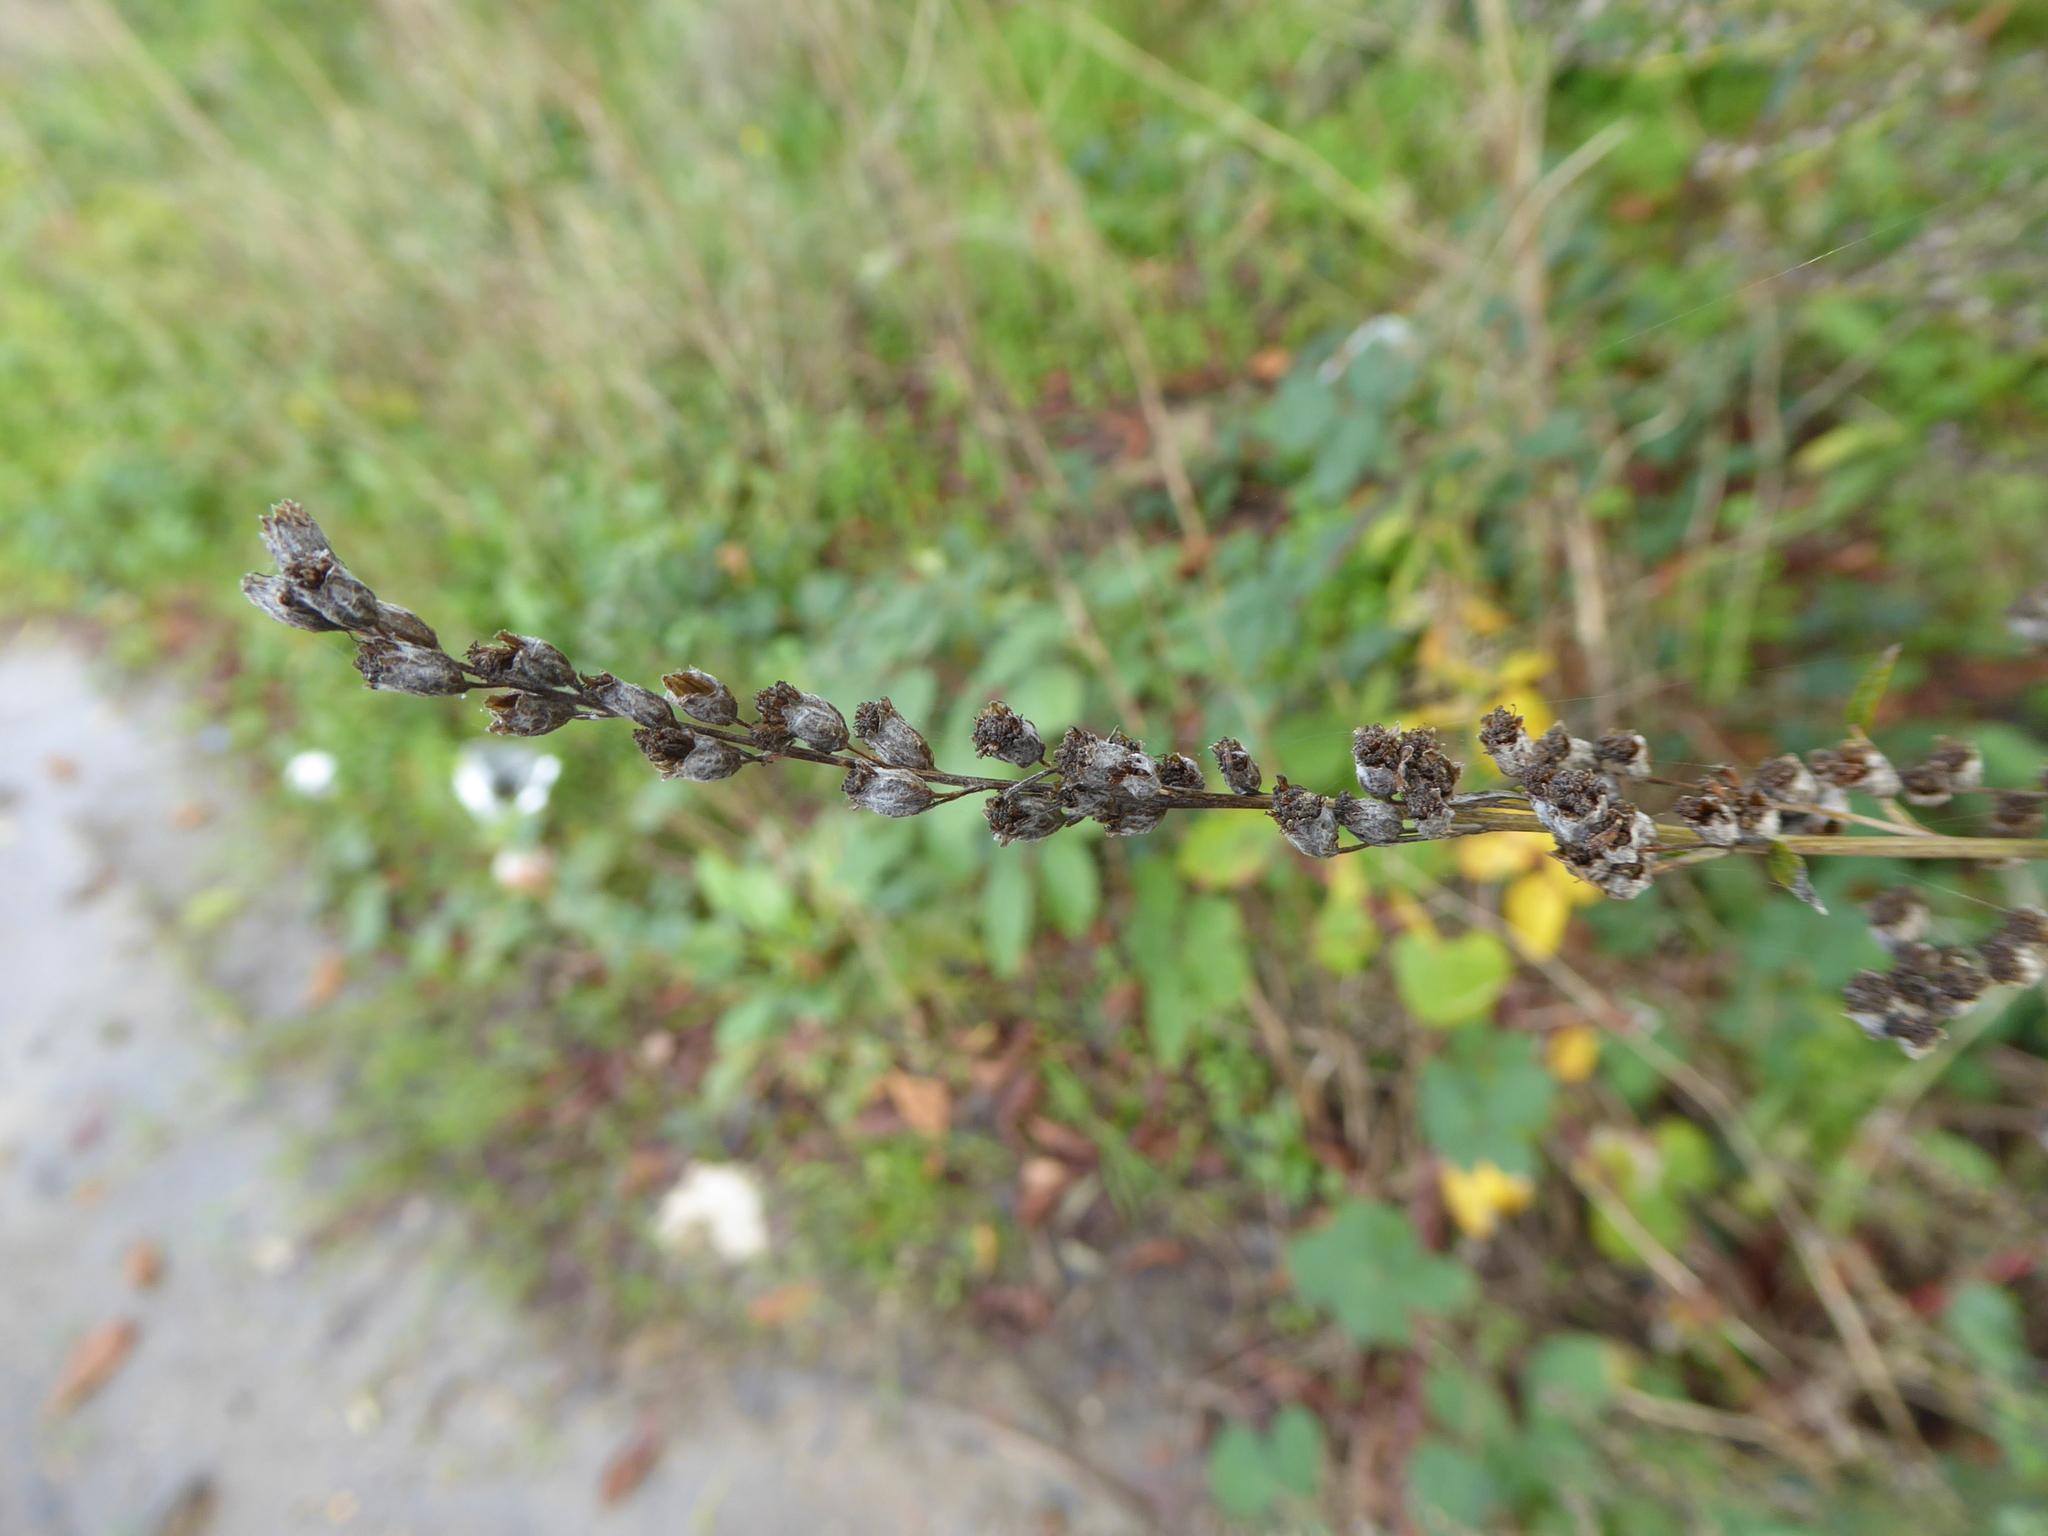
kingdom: Plantae
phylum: Tracheophyta
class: Magnoliopsida
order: Asterales
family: Asteraceae
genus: Artemisia
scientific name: Artemisia vulgaris
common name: Mugwort
